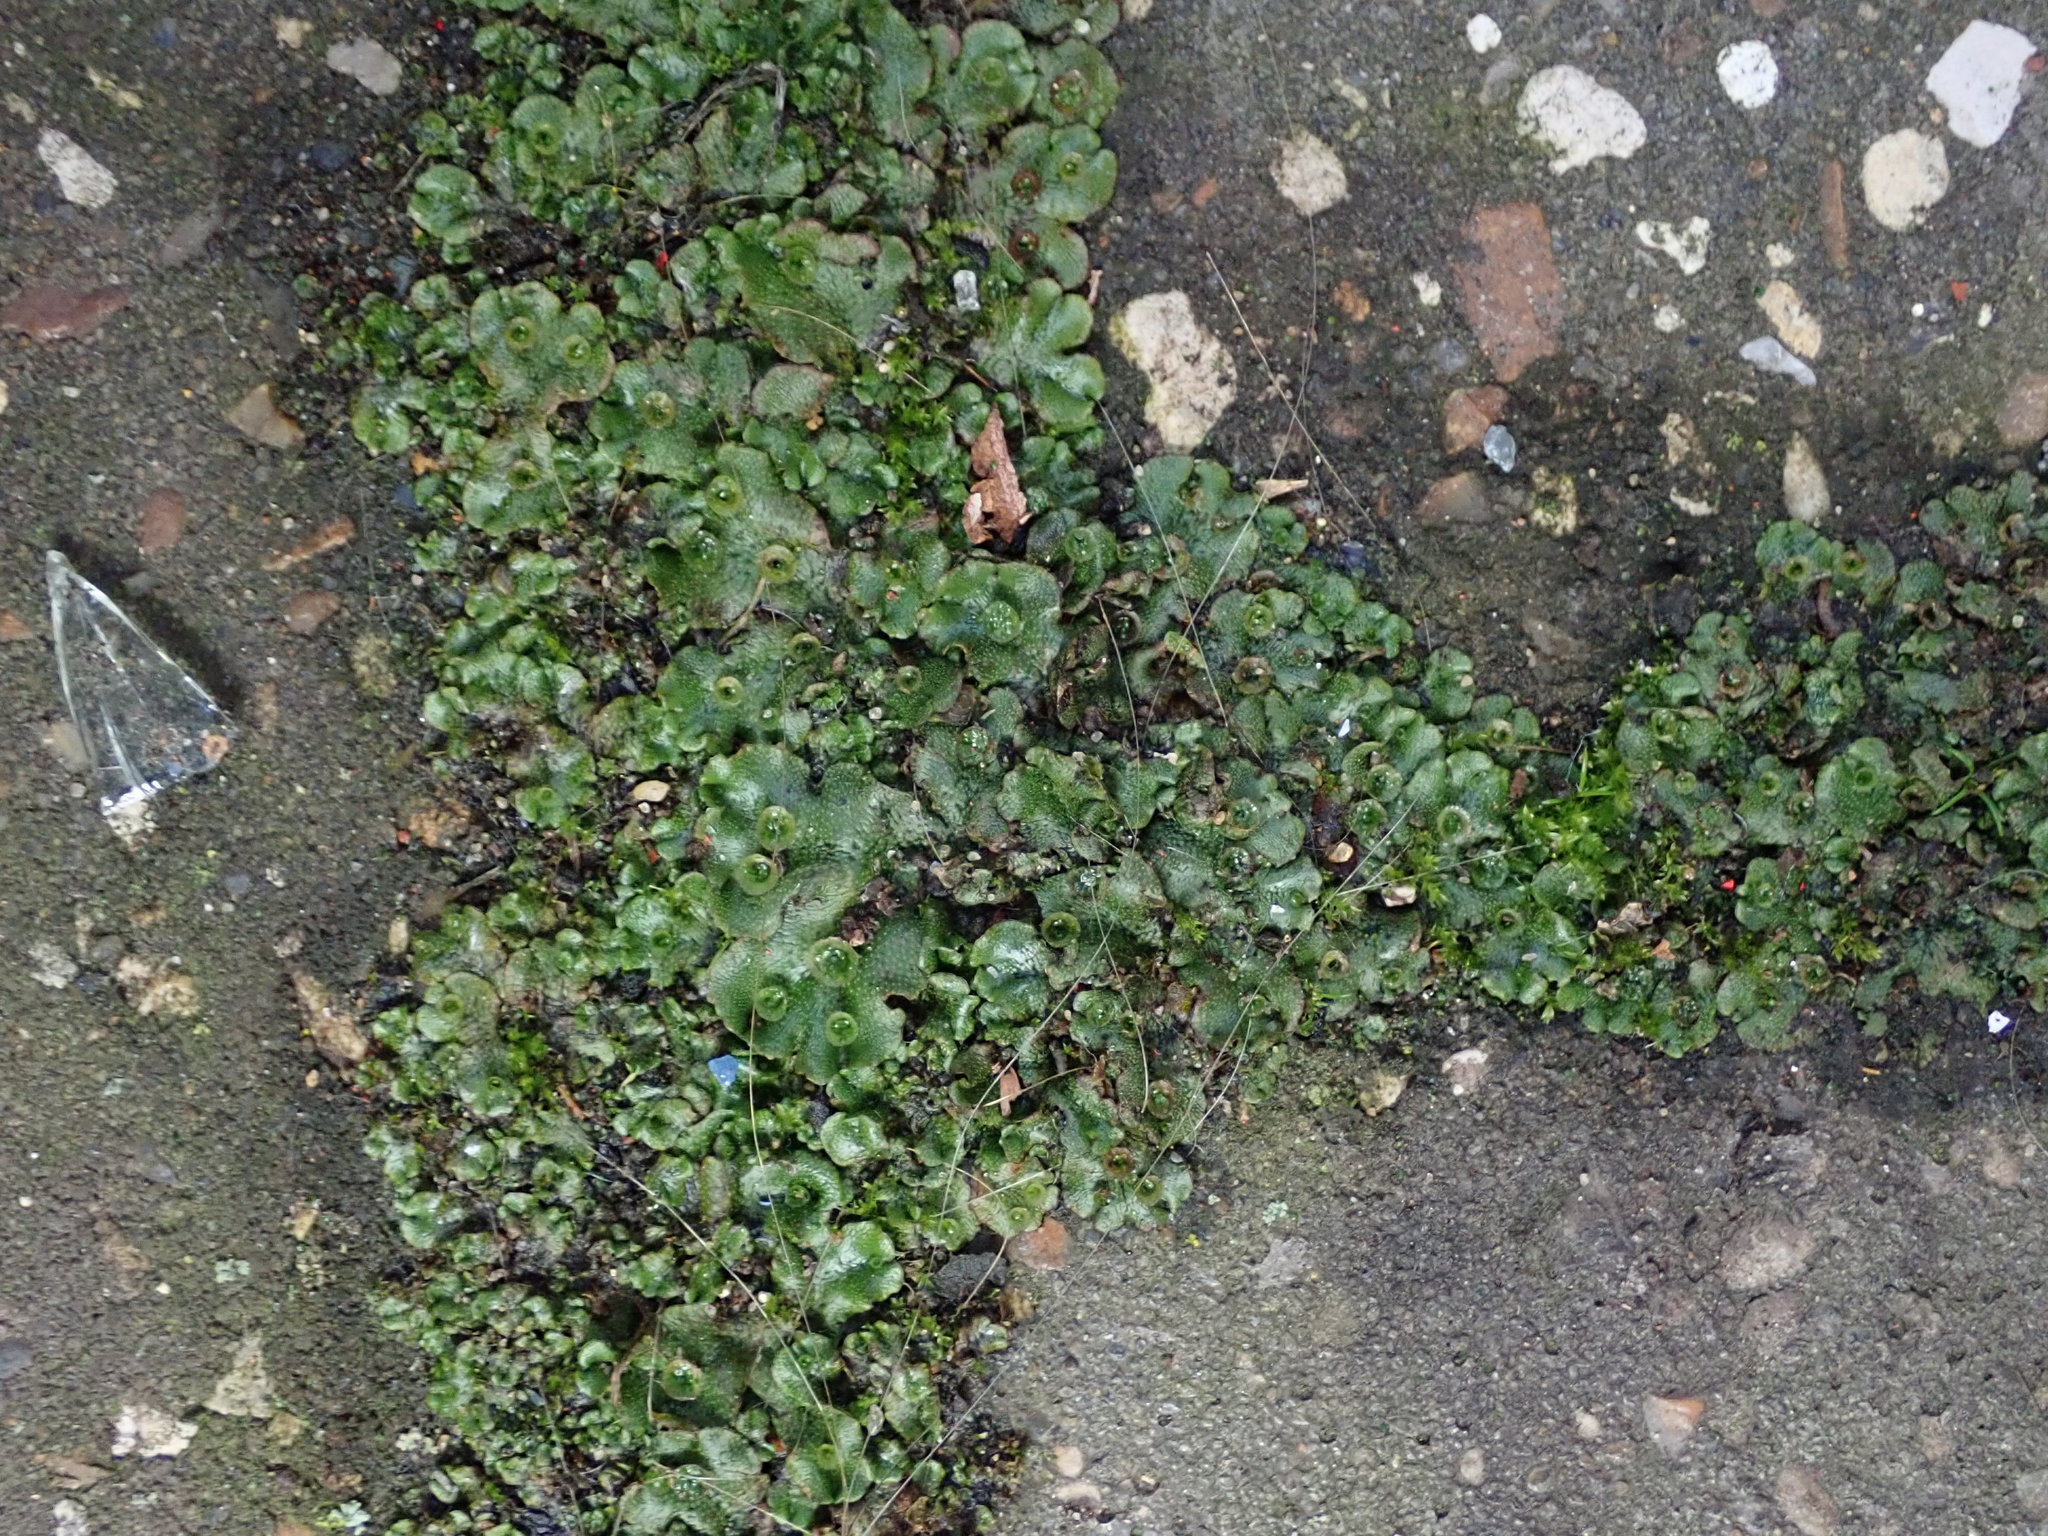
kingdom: Plantae
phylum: Marchantiophyta
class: Marchantiopsida
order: Marchantiales
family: Marchantiaceae
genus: Marchantia
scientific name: Marchantia polymorpha
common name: Common liverwort
